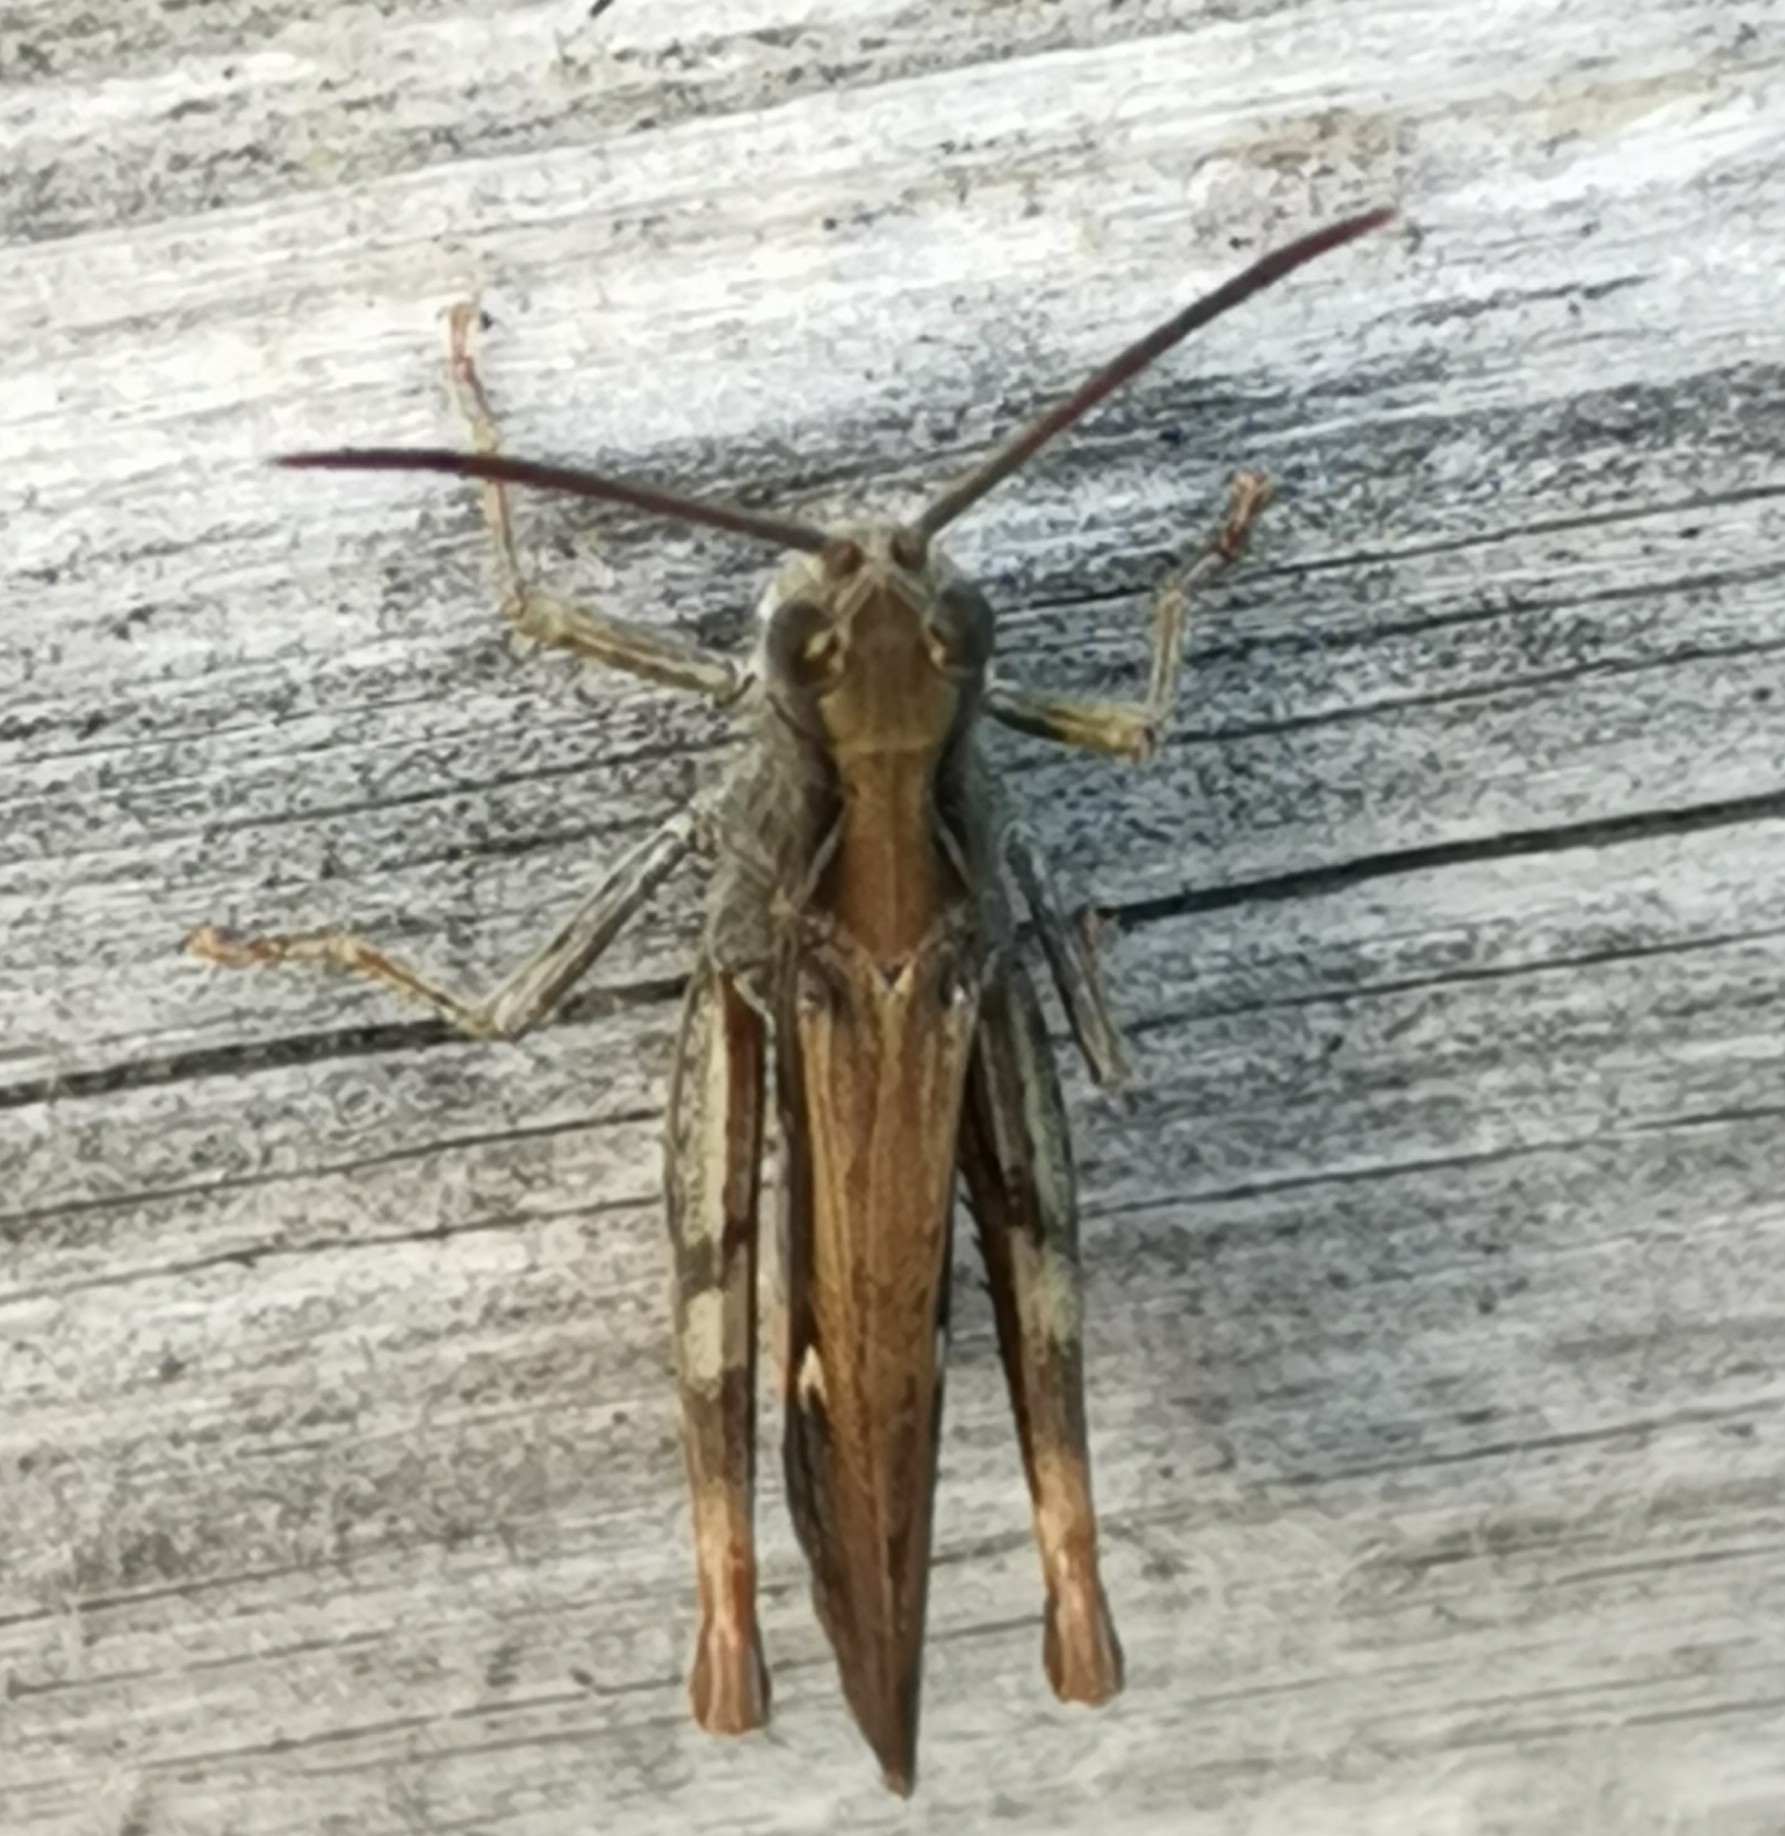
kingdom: Animalia
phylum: Arthropoda
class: Insecta
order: Orthoptera
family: Acrididae
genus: Chorthippus
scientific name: Chorthippus brunneus
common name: Field grasshopper
